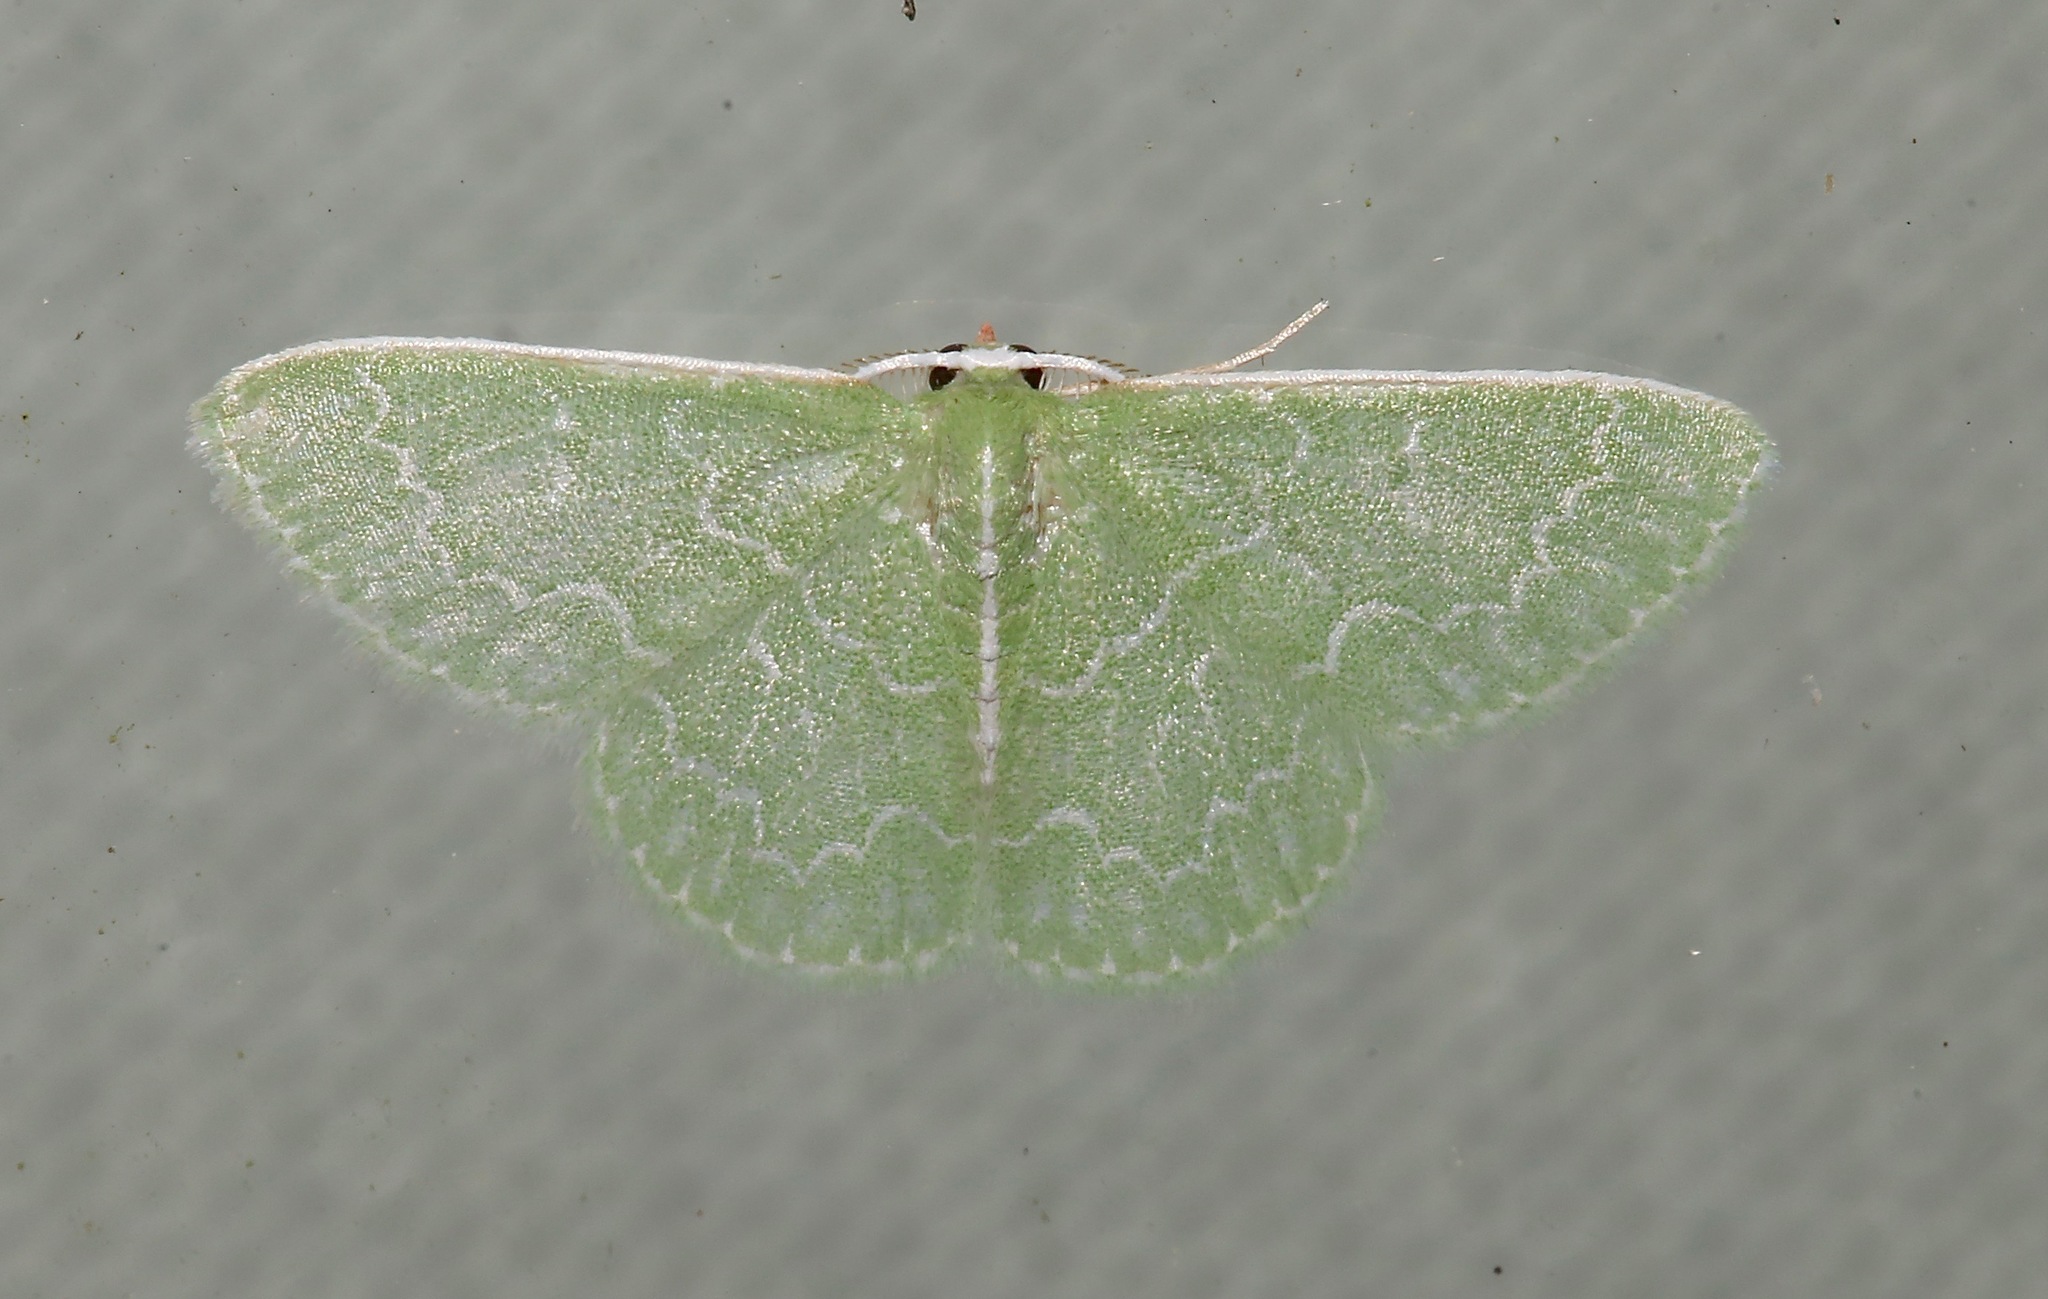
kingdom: Animalia
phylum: Arthropoda
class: Insecta
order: Lepidoptera
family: Geometridae
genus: Synchlora
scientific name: Synchlora frondaria
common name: Southern emerald
